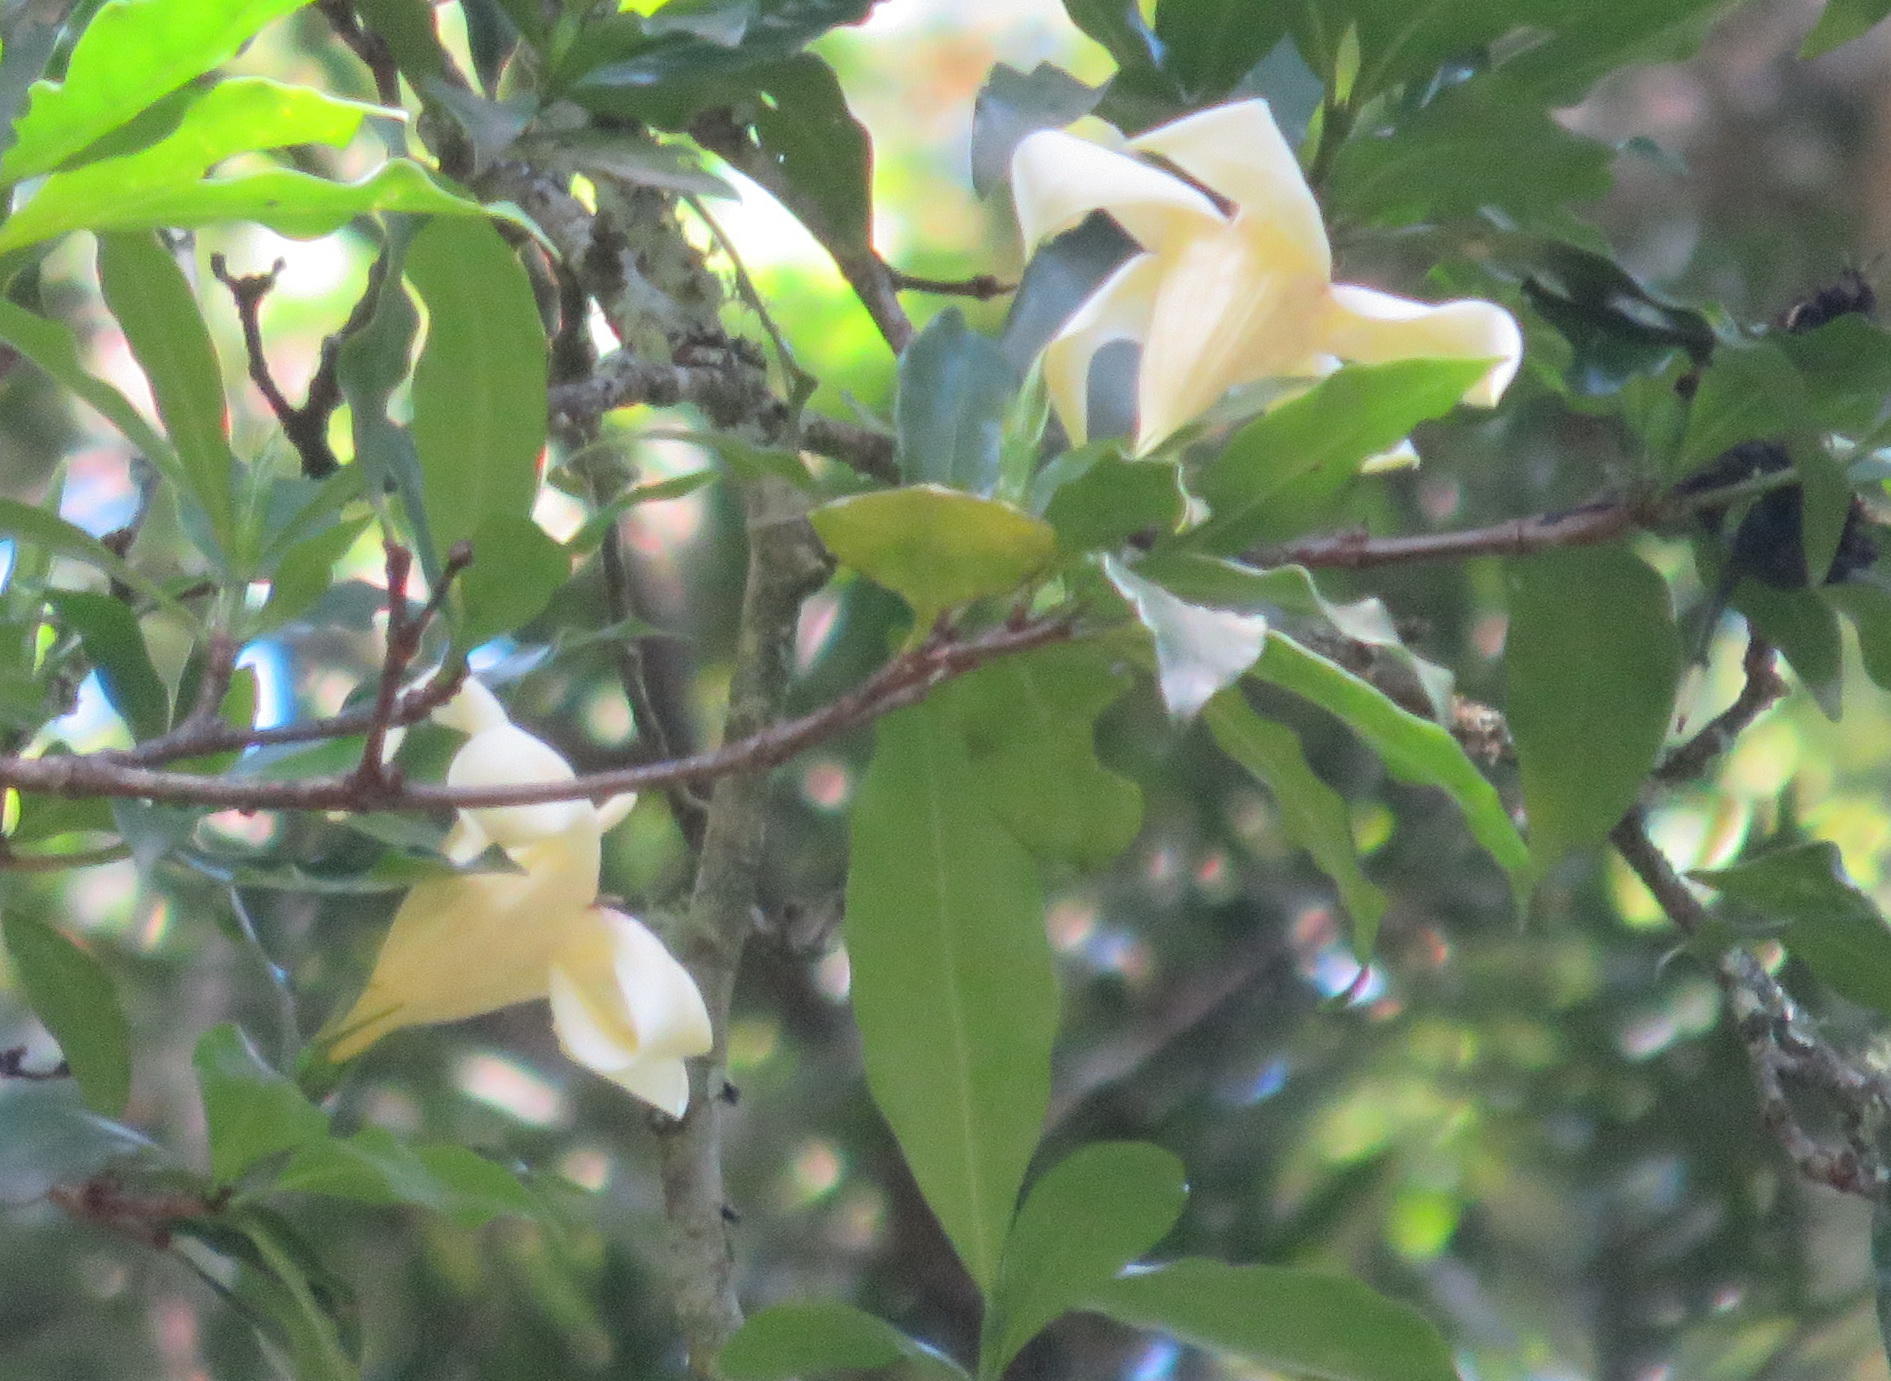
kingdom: Plantae
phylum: Tracheophyta
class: Magnoliopsida
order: Gentianales
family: Rubiaceae
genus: Rothmannia
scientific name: Rothmannia capensis
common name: Cape gardenia
